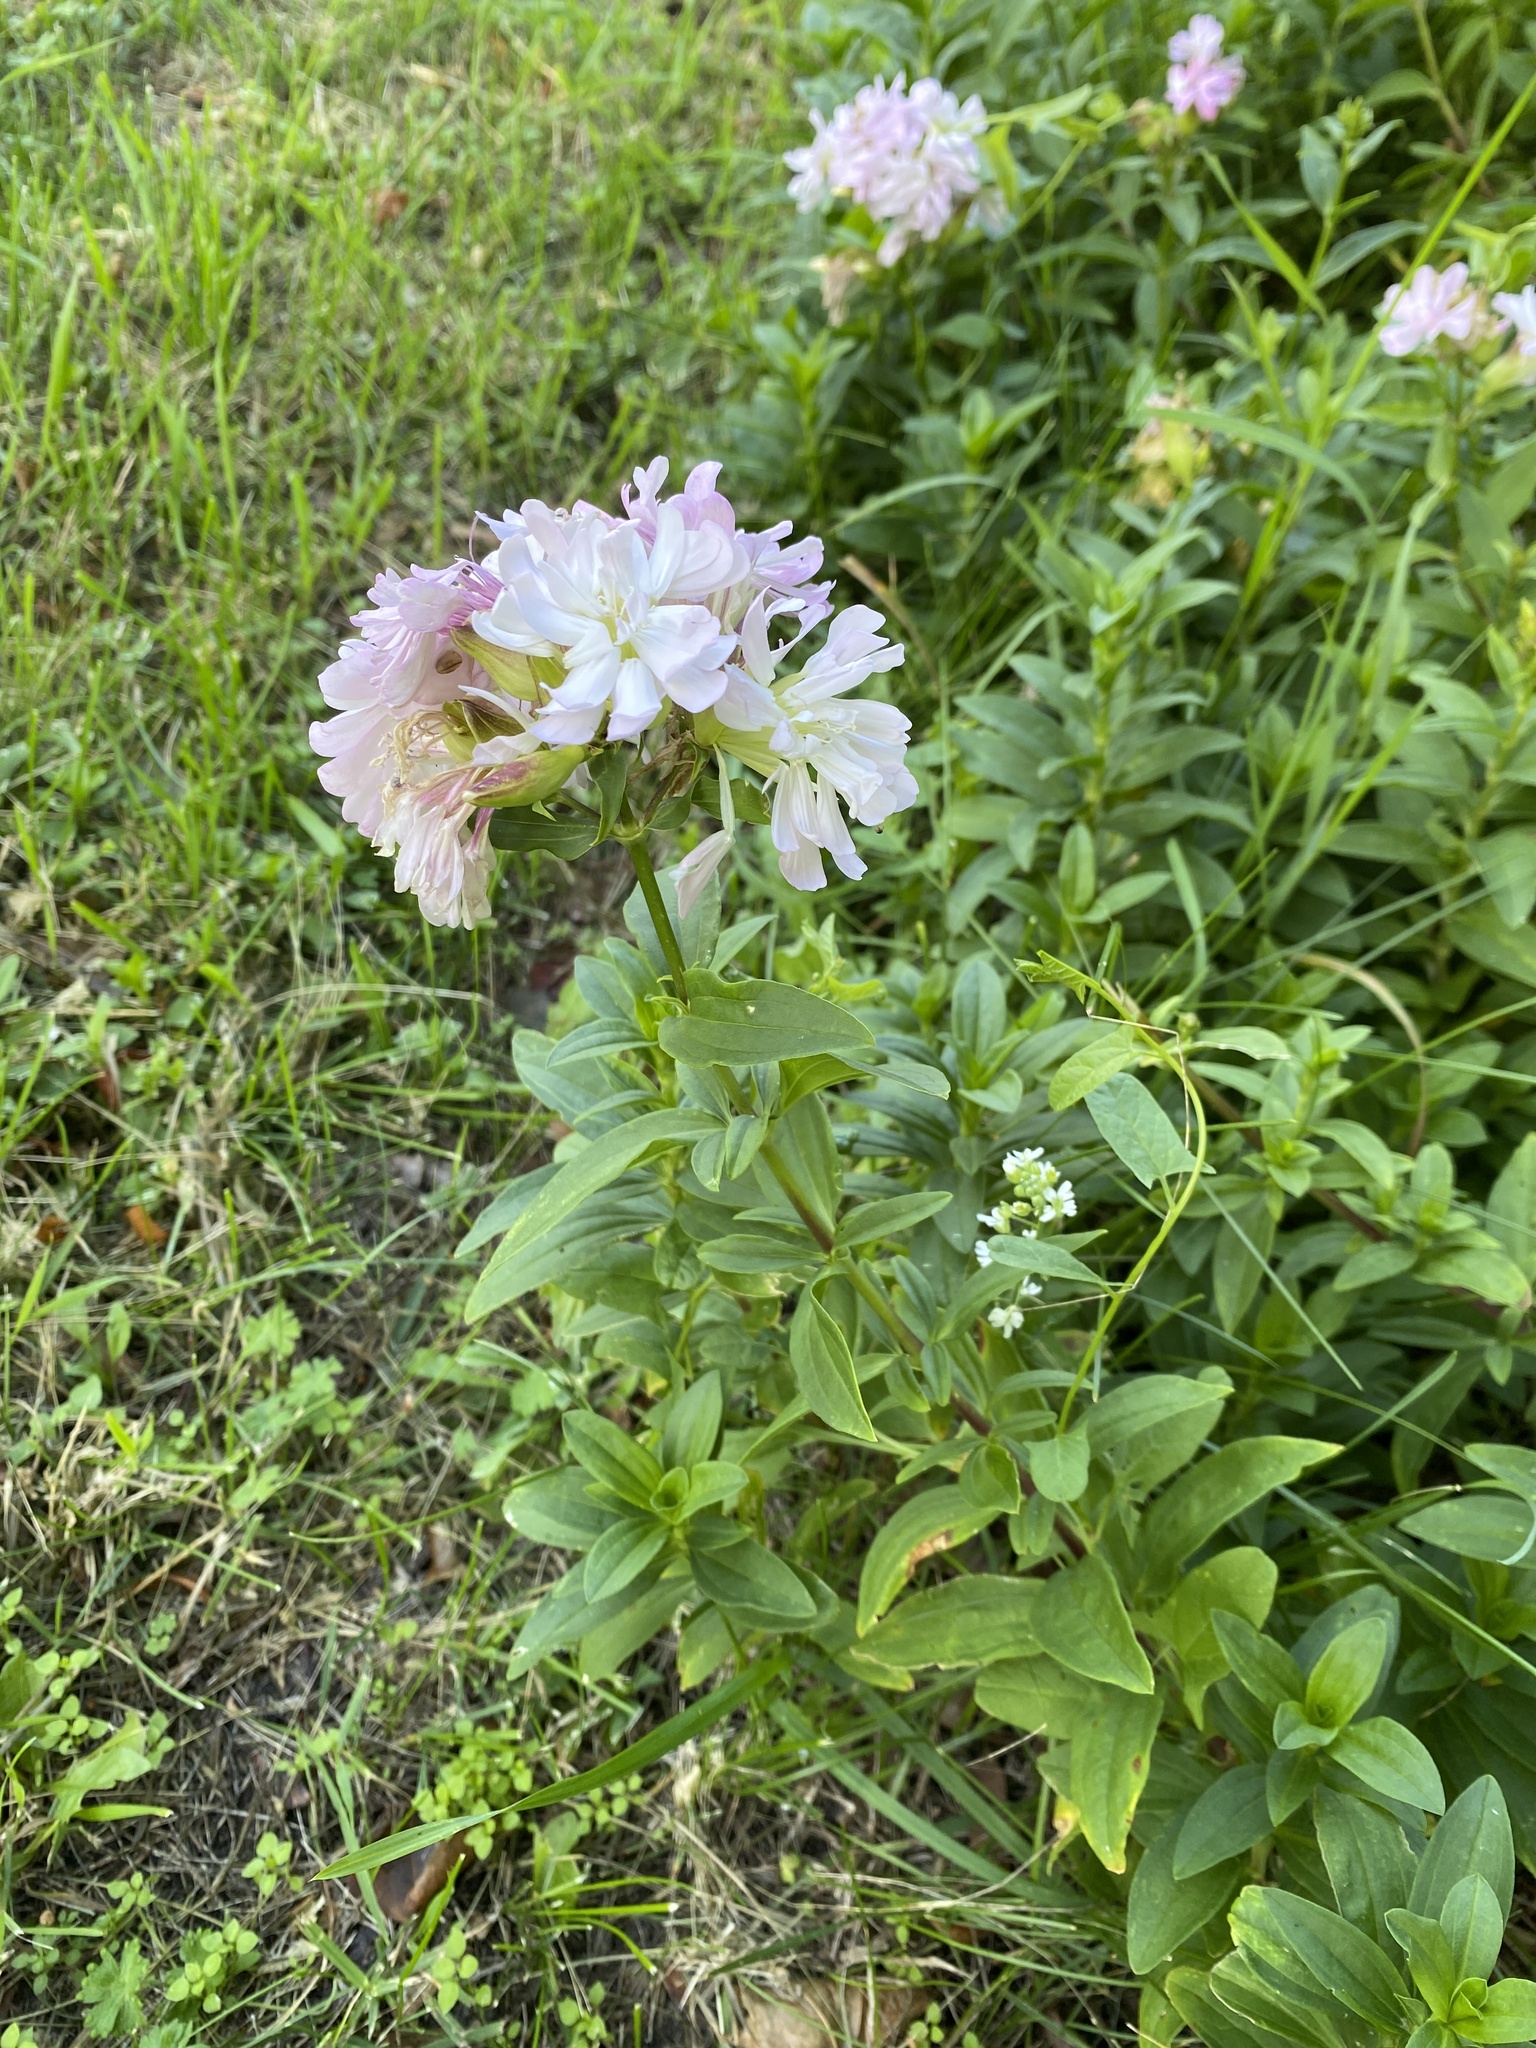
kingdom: Plantae
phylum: Tracheophyta
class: Magnoliopsida
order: Caryophyllales
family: Caryophyllaceae
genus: Saponaria
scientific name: Saponaria officinalis
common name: Soapwort
